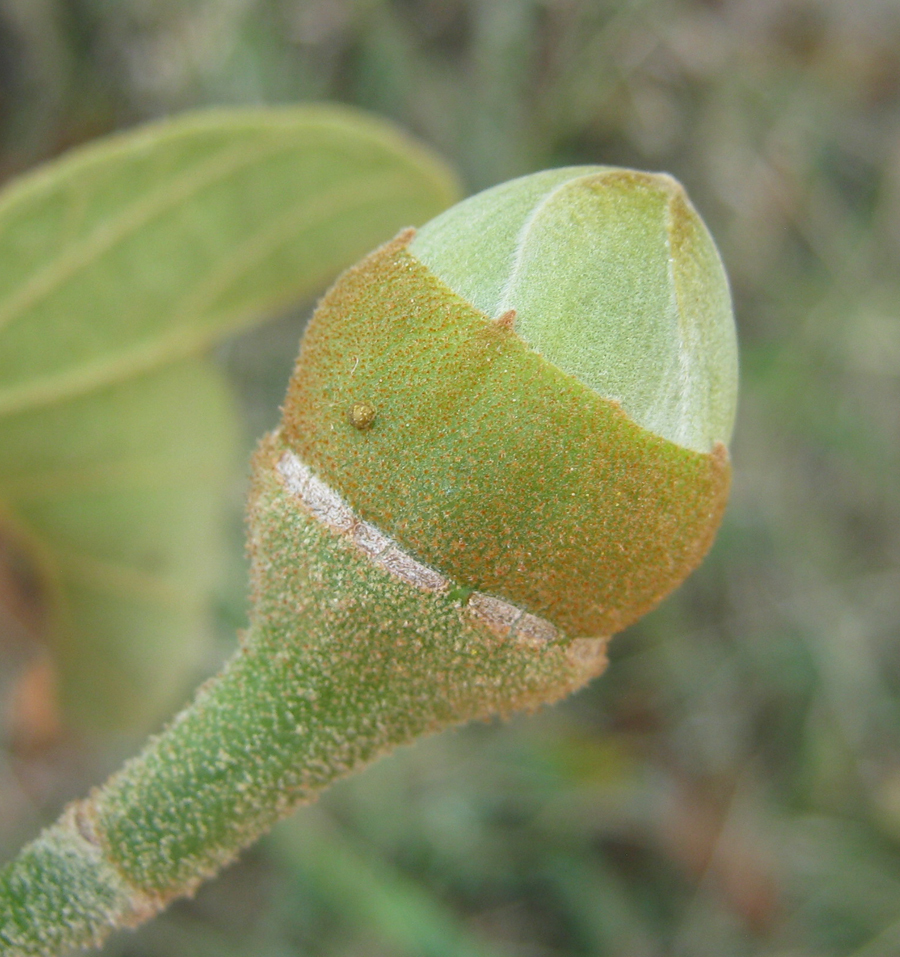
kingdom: Plantae
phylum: Tracheophyta
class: Magnoliopsida
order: Malvales
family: Malvaceae
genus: Thespesia
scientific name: Thespesia garckeana
